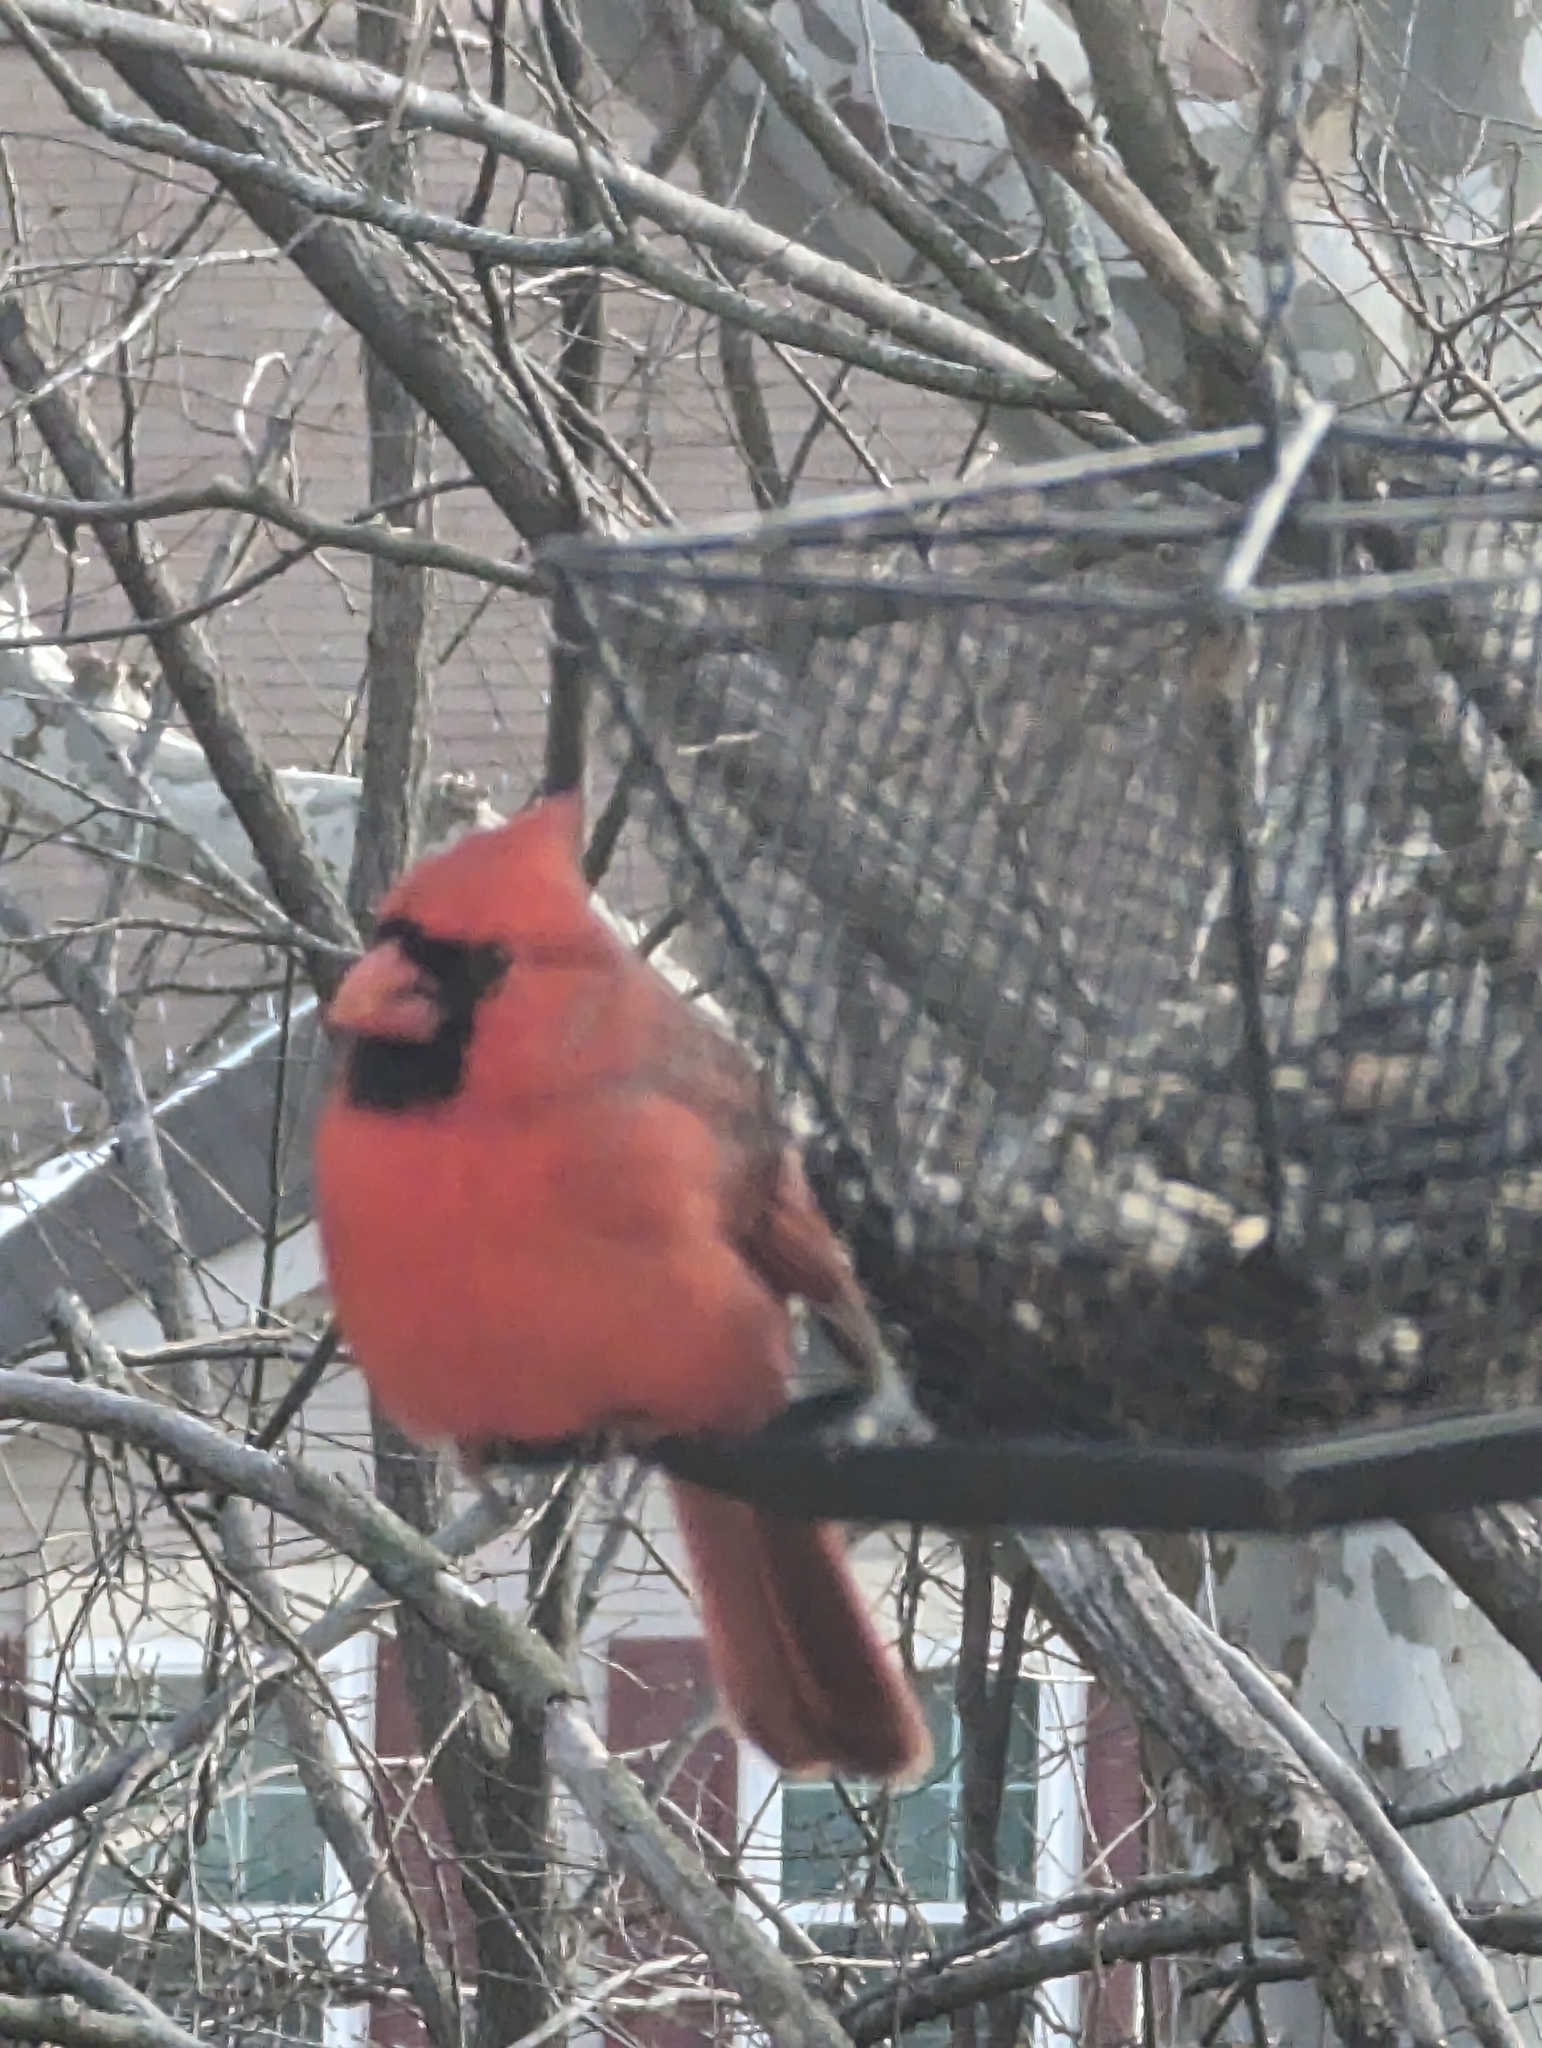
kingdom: Animalia
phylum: Chordata
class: Aves
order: Passeriformes
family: Cardinalidae
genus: Cardinalis
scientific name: Cardinalis cardinalis
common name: Northern cardinal
